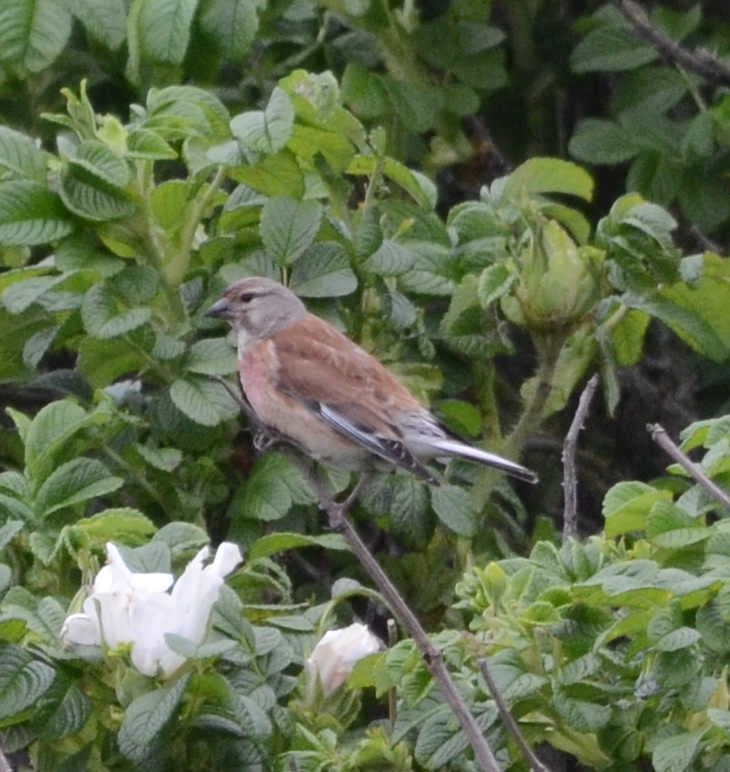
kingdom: Animalia
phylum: Chordata
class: Aves
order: Passeriformes
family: Fringillidae
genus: Linaria
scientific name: Linaria cannabina
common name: Common linnet
